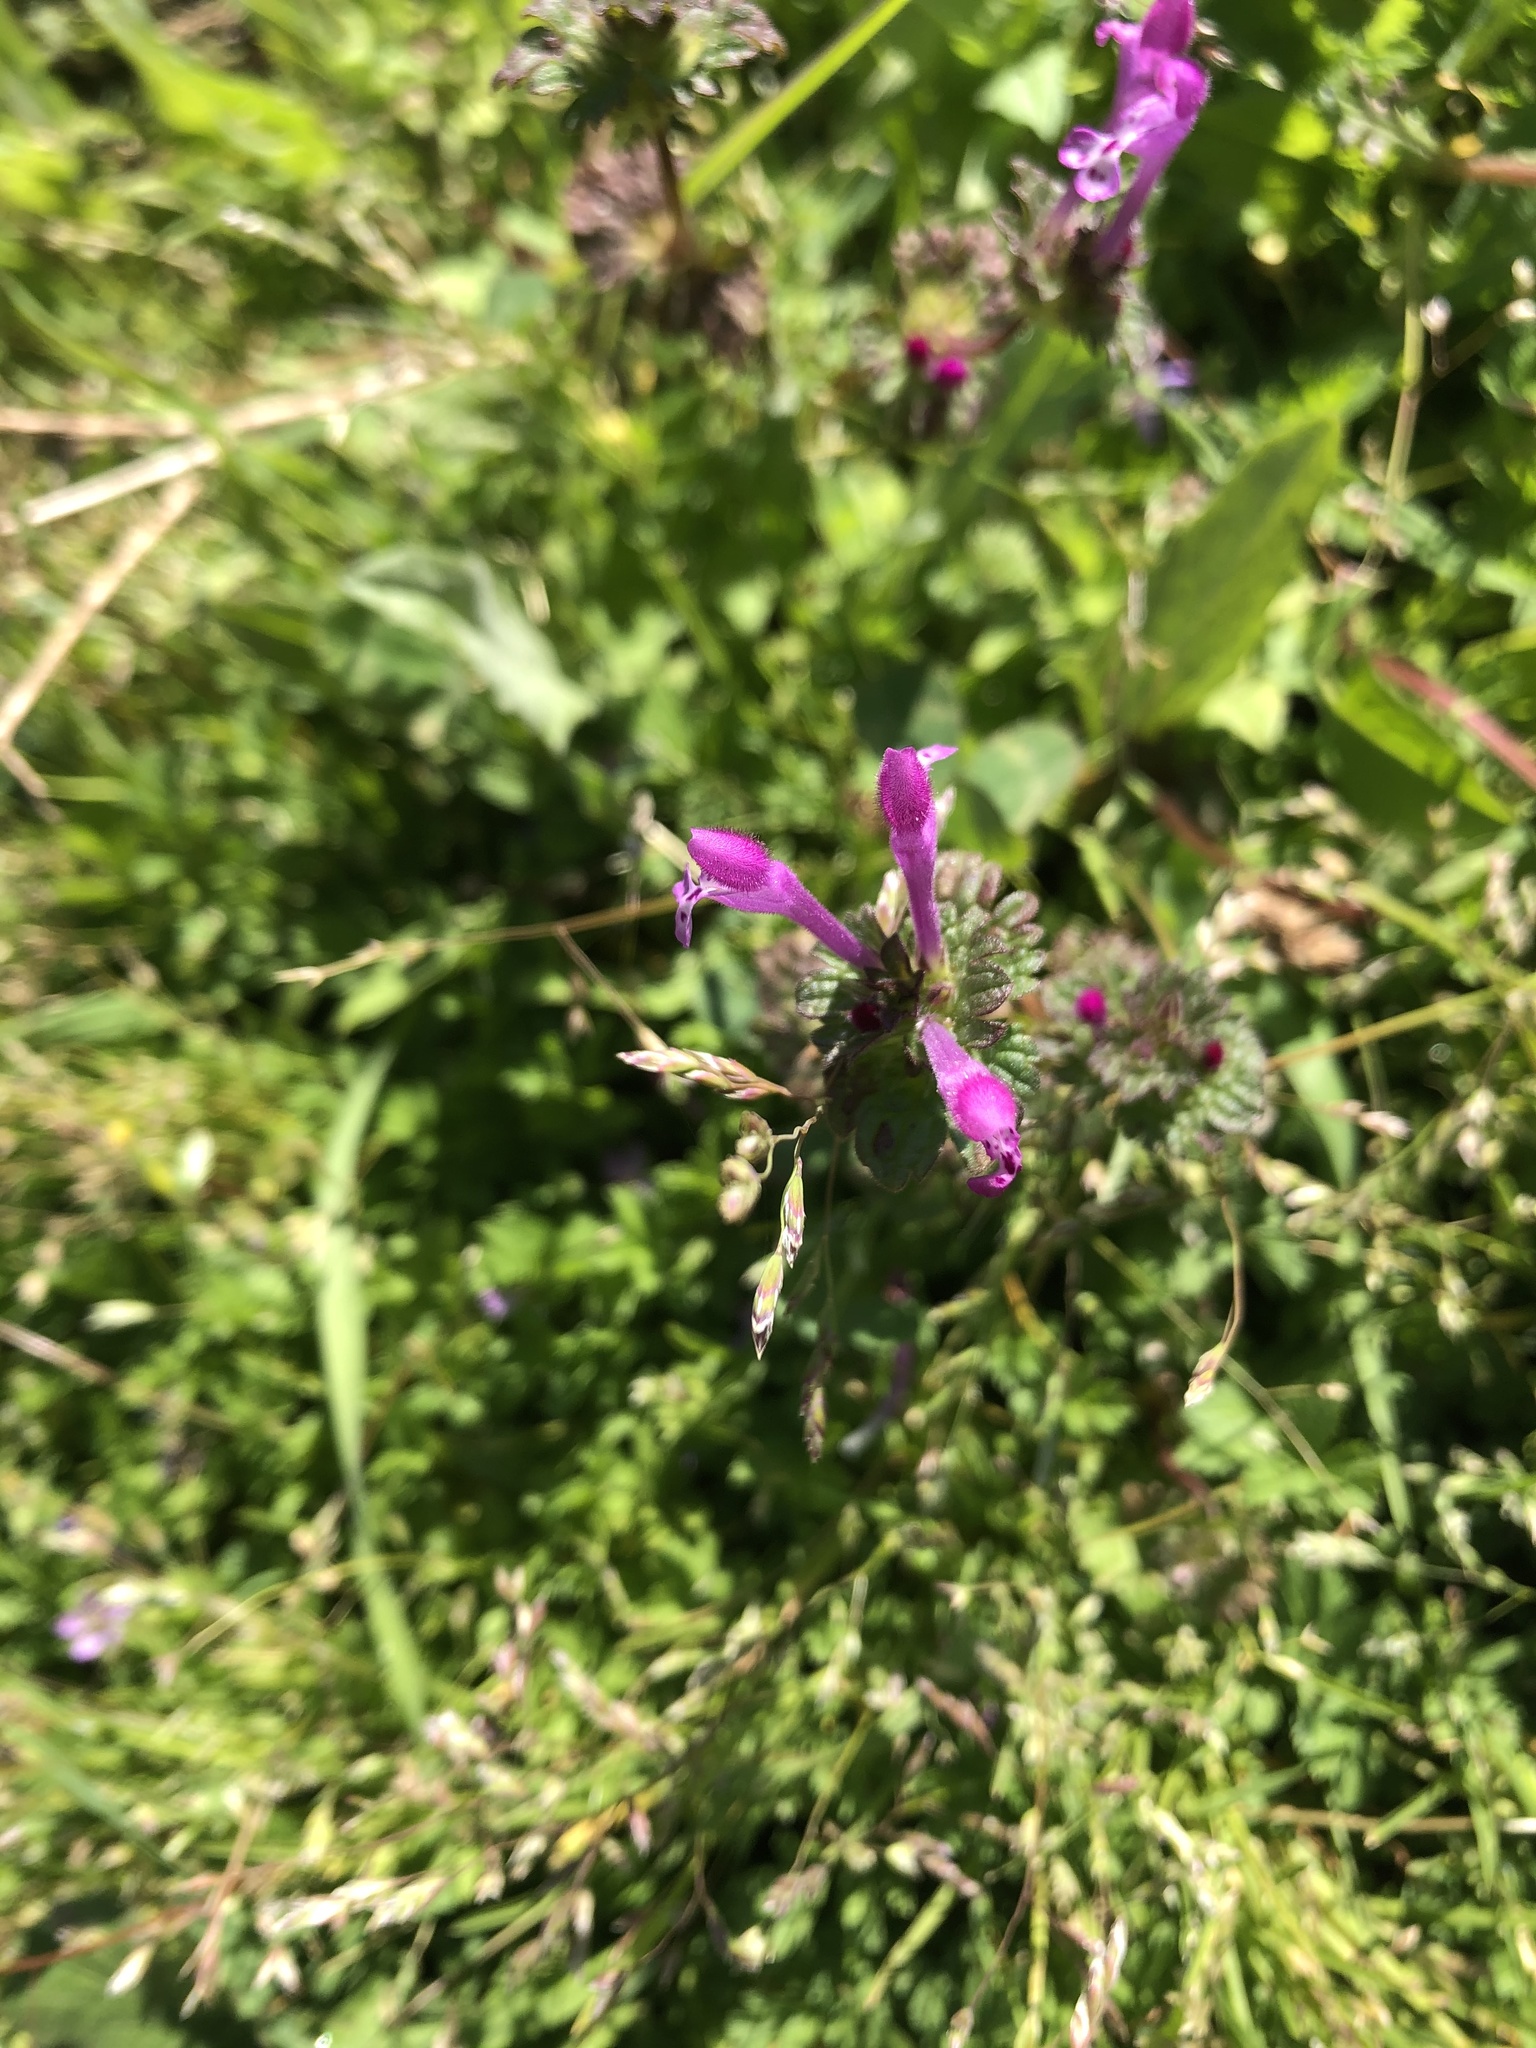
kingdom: Plantae
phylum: Tracheophyta
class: Magnoliopsida
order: Lamiales
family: Lamiaceae
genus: Lamium
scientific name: Lamium amplexicaule
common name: Henbit dead-nettle
